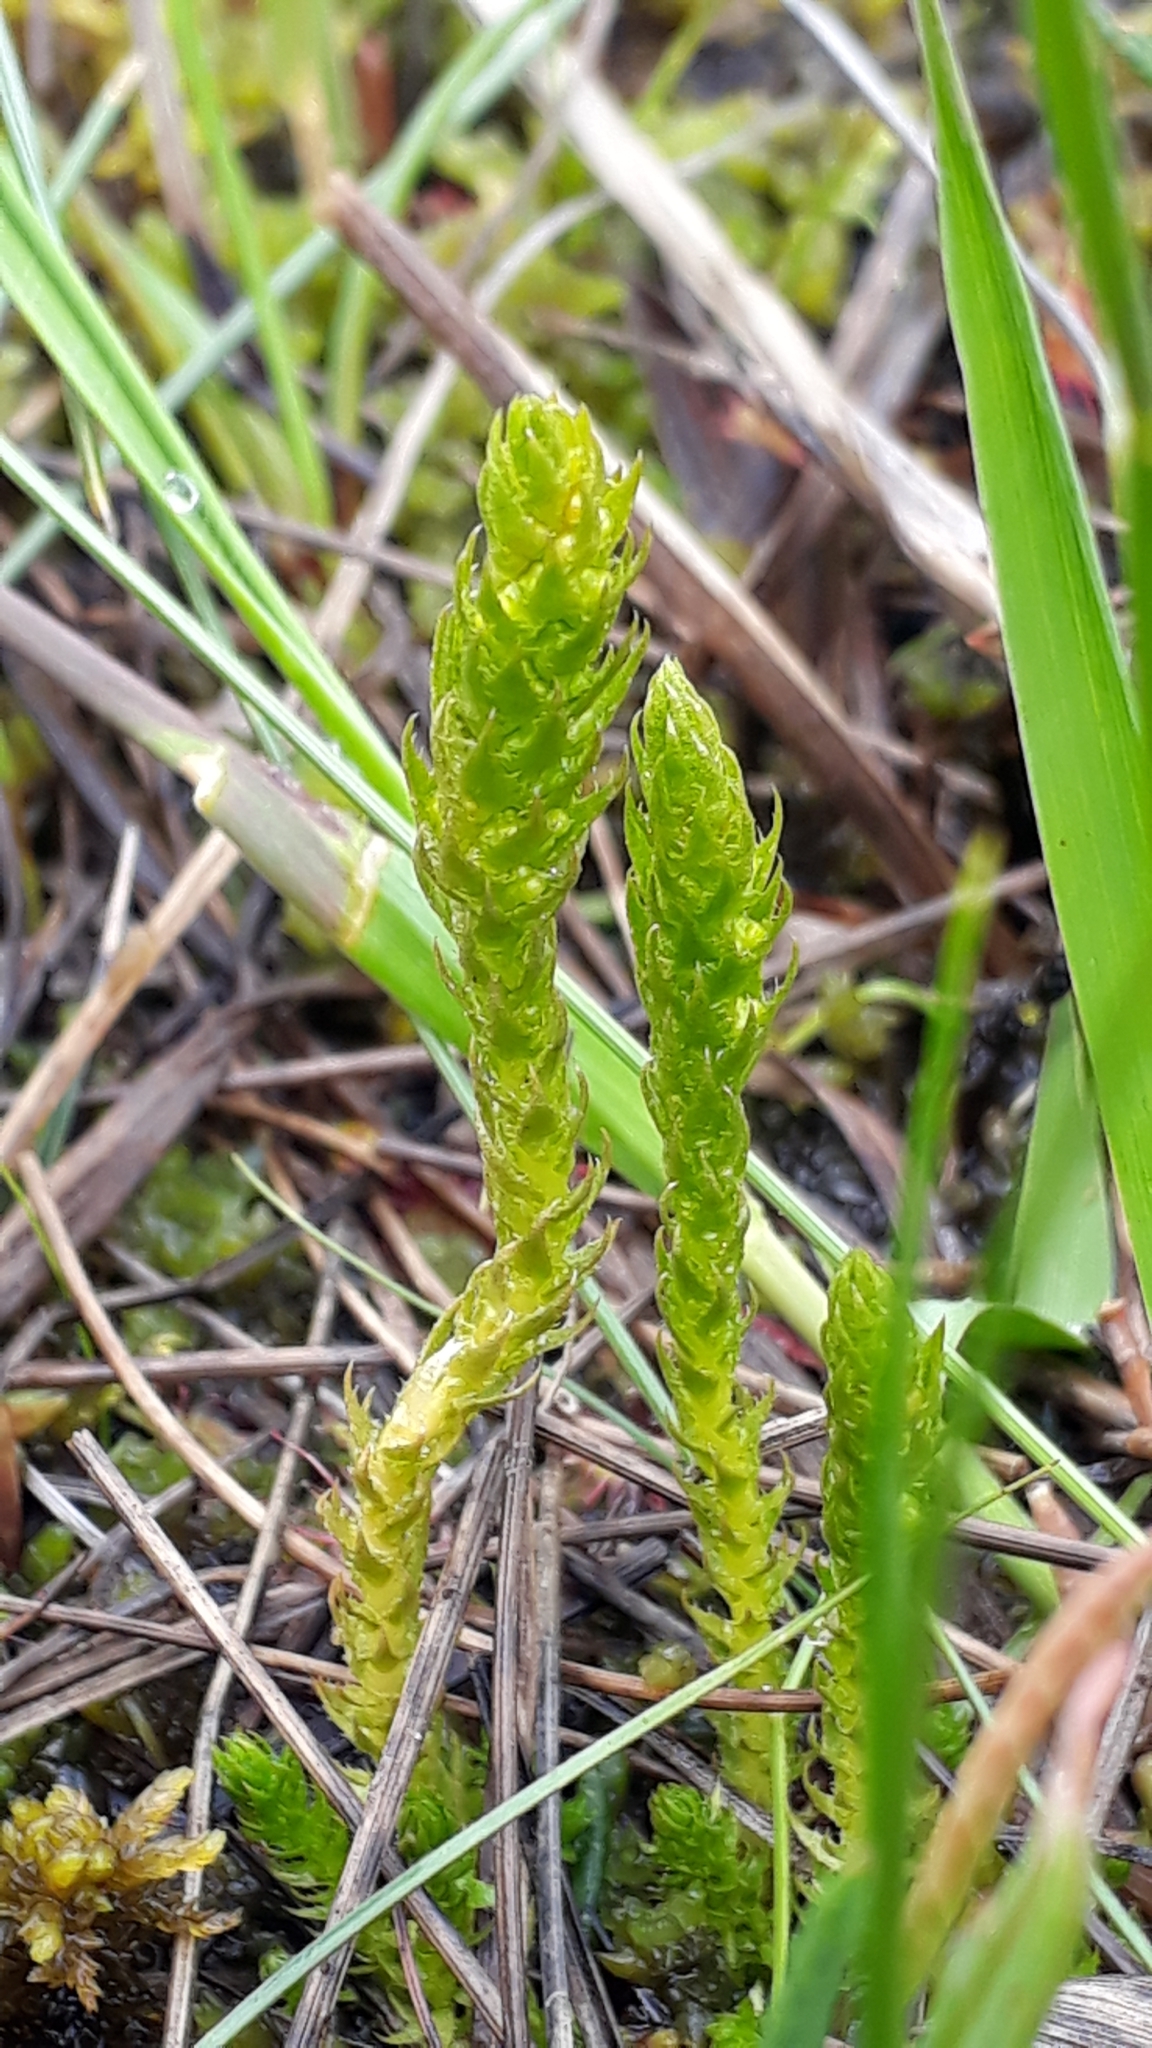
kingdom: Plantae
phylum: Tracheophyta
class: Lycopodiopsida
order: Selaginellales
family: Selaginellaceae
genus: Selaginella
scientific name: Selaginella selaginoides
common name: Prickly mountain-moss
